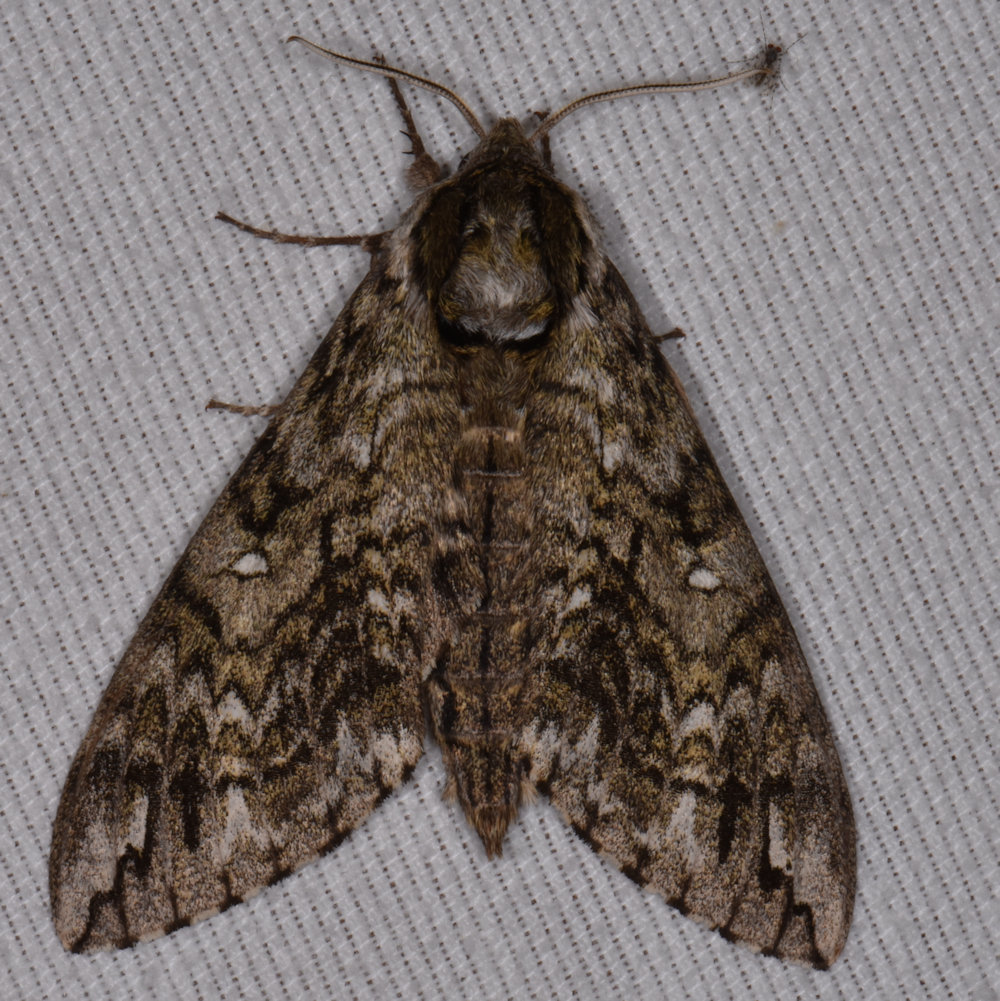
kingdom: Animalia
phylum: Arthropoda
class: Insecta
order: Lepidoptera
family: Sphingidae
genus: Ceratomia
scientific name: Ceratomia undulosa
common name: Waved sphinx
